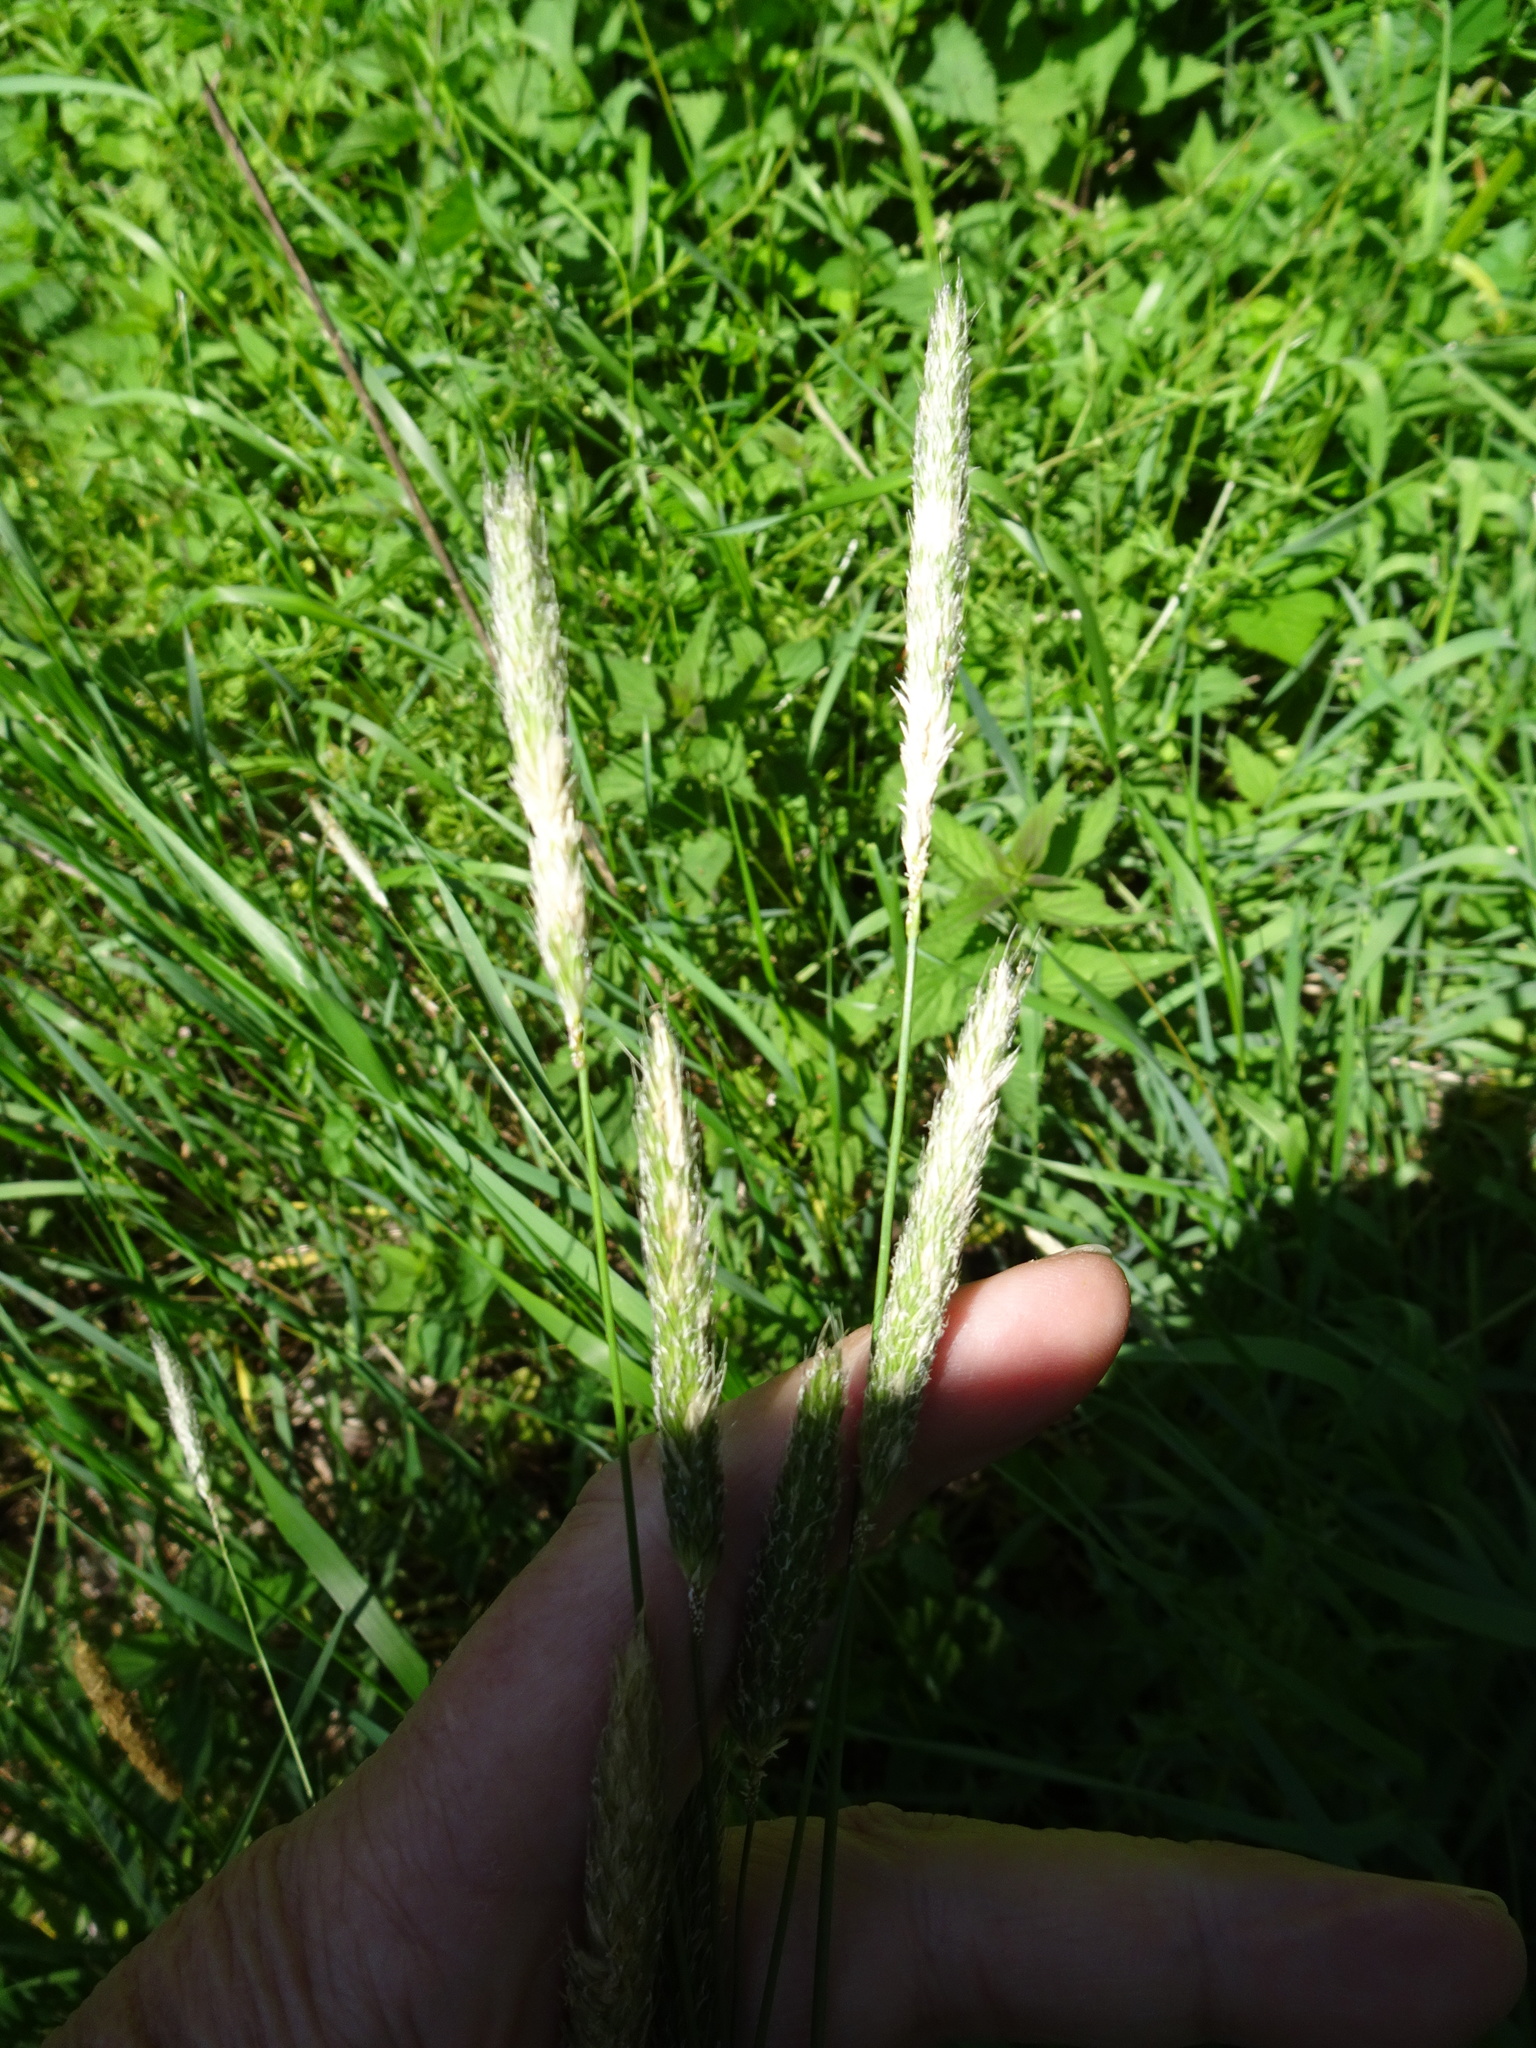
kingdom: Plantae
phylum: Tracheophyta
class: Liliopsida
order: Poales
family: Poaceae
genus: Alopecurus
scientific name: Alopecurus pratensis
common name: Meadow foxtail
